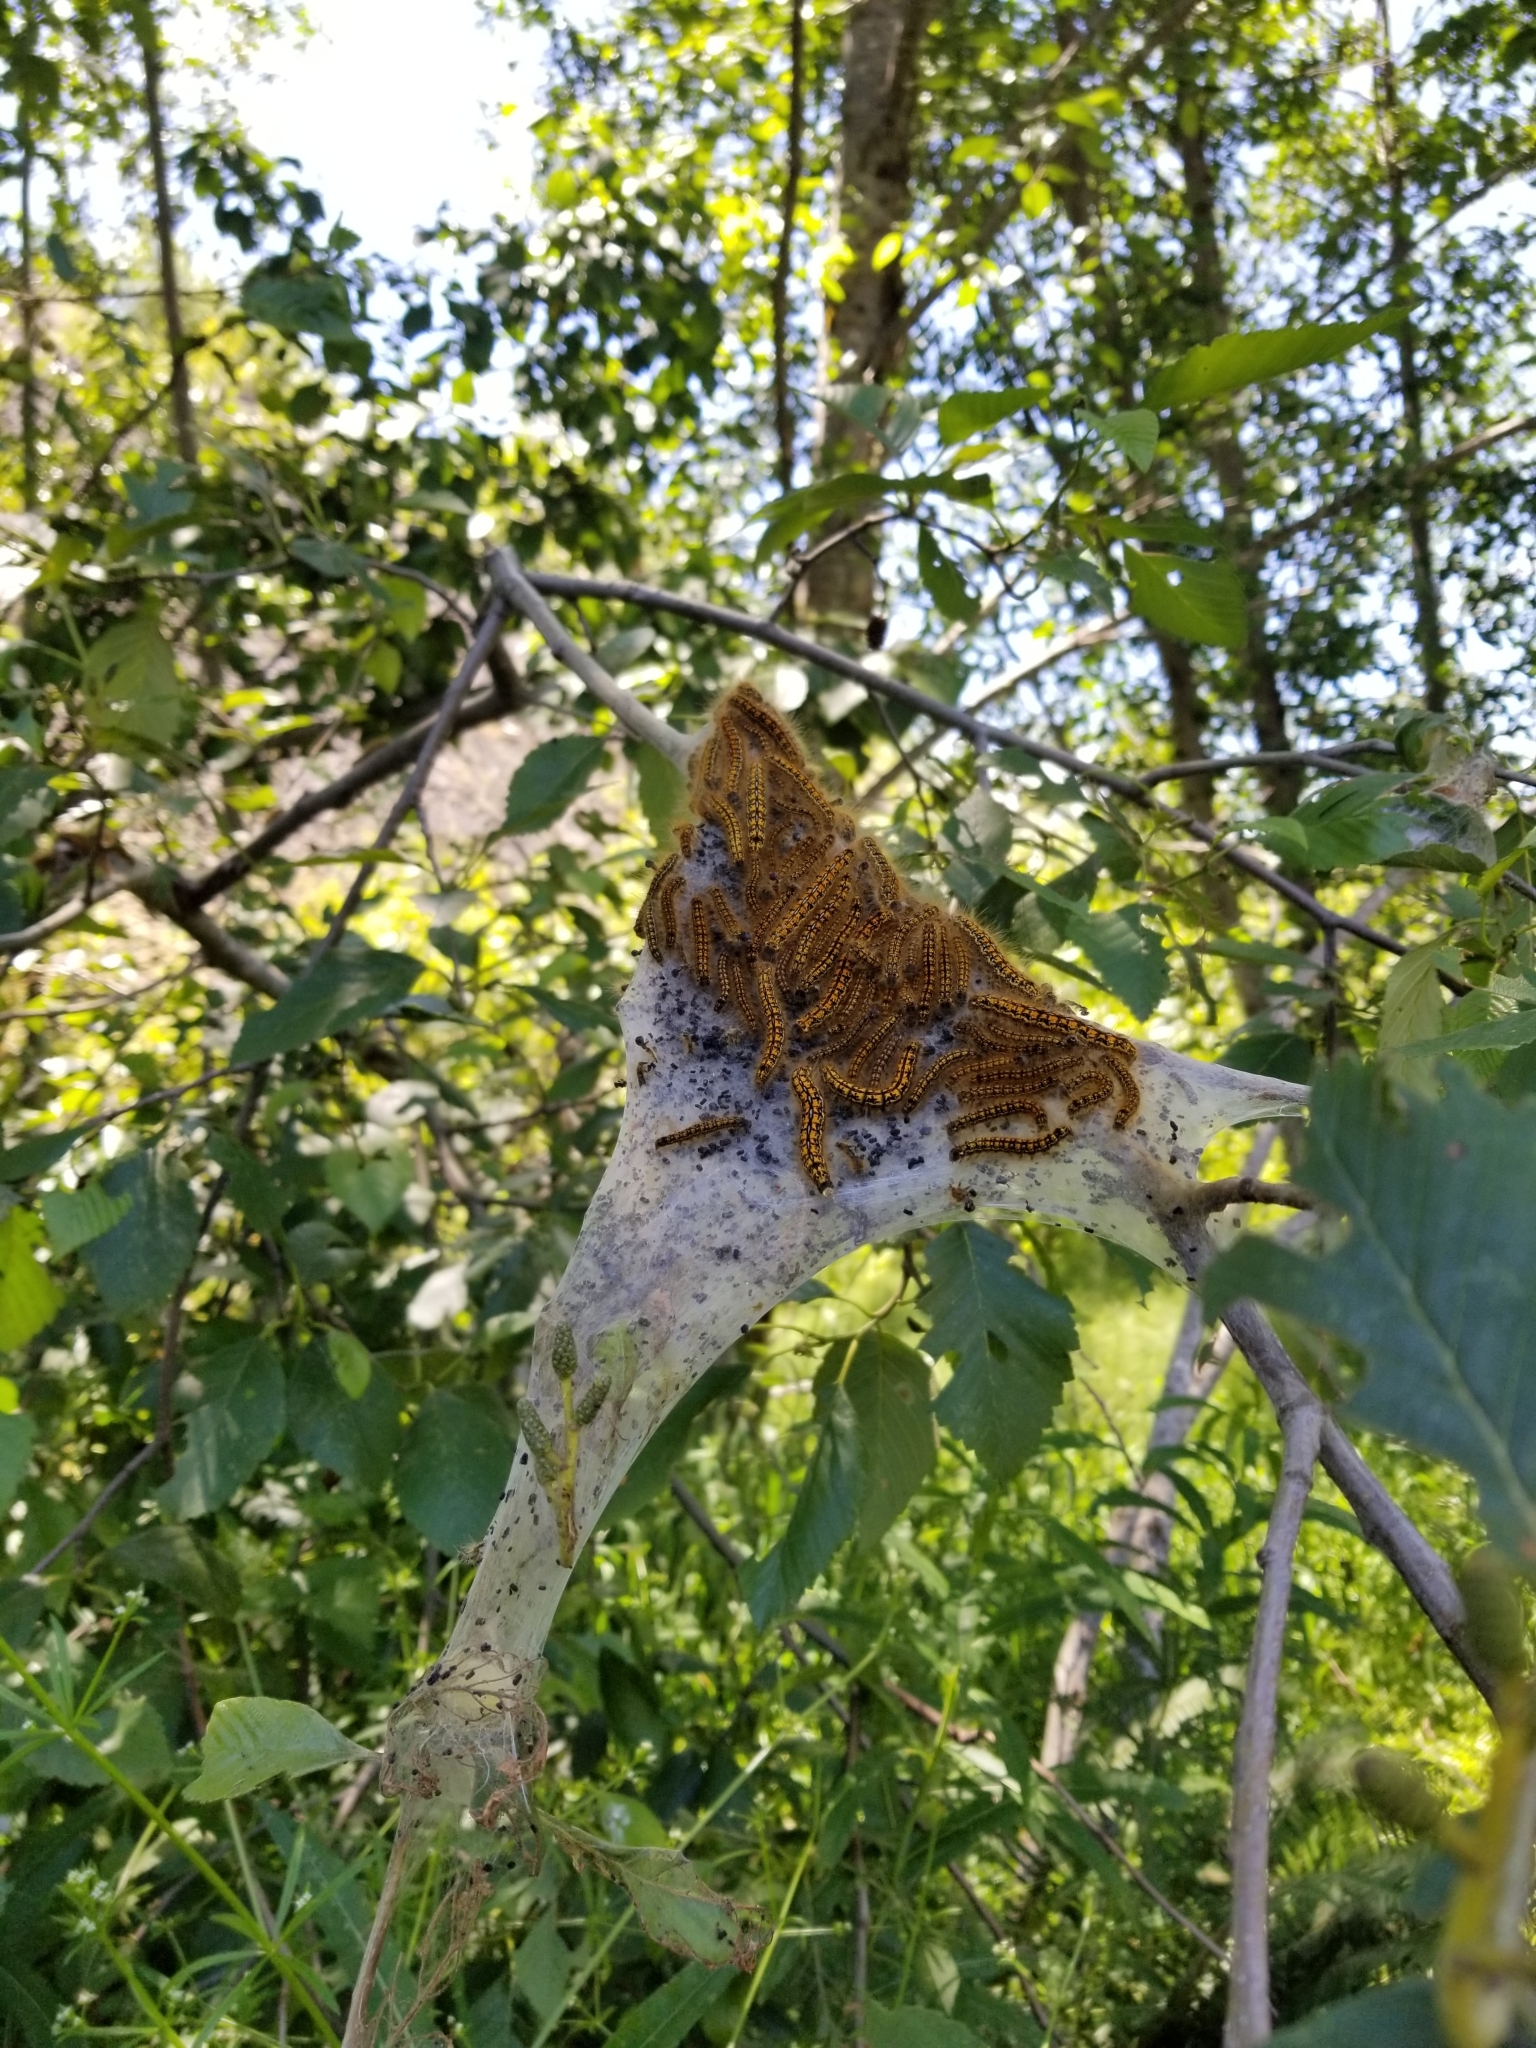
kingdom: Animalia
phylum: Arthropoda
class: Insecta
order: Lepidoptera
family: Lasiocampidae
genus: Malacosoma
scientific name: Malacosoma californica
